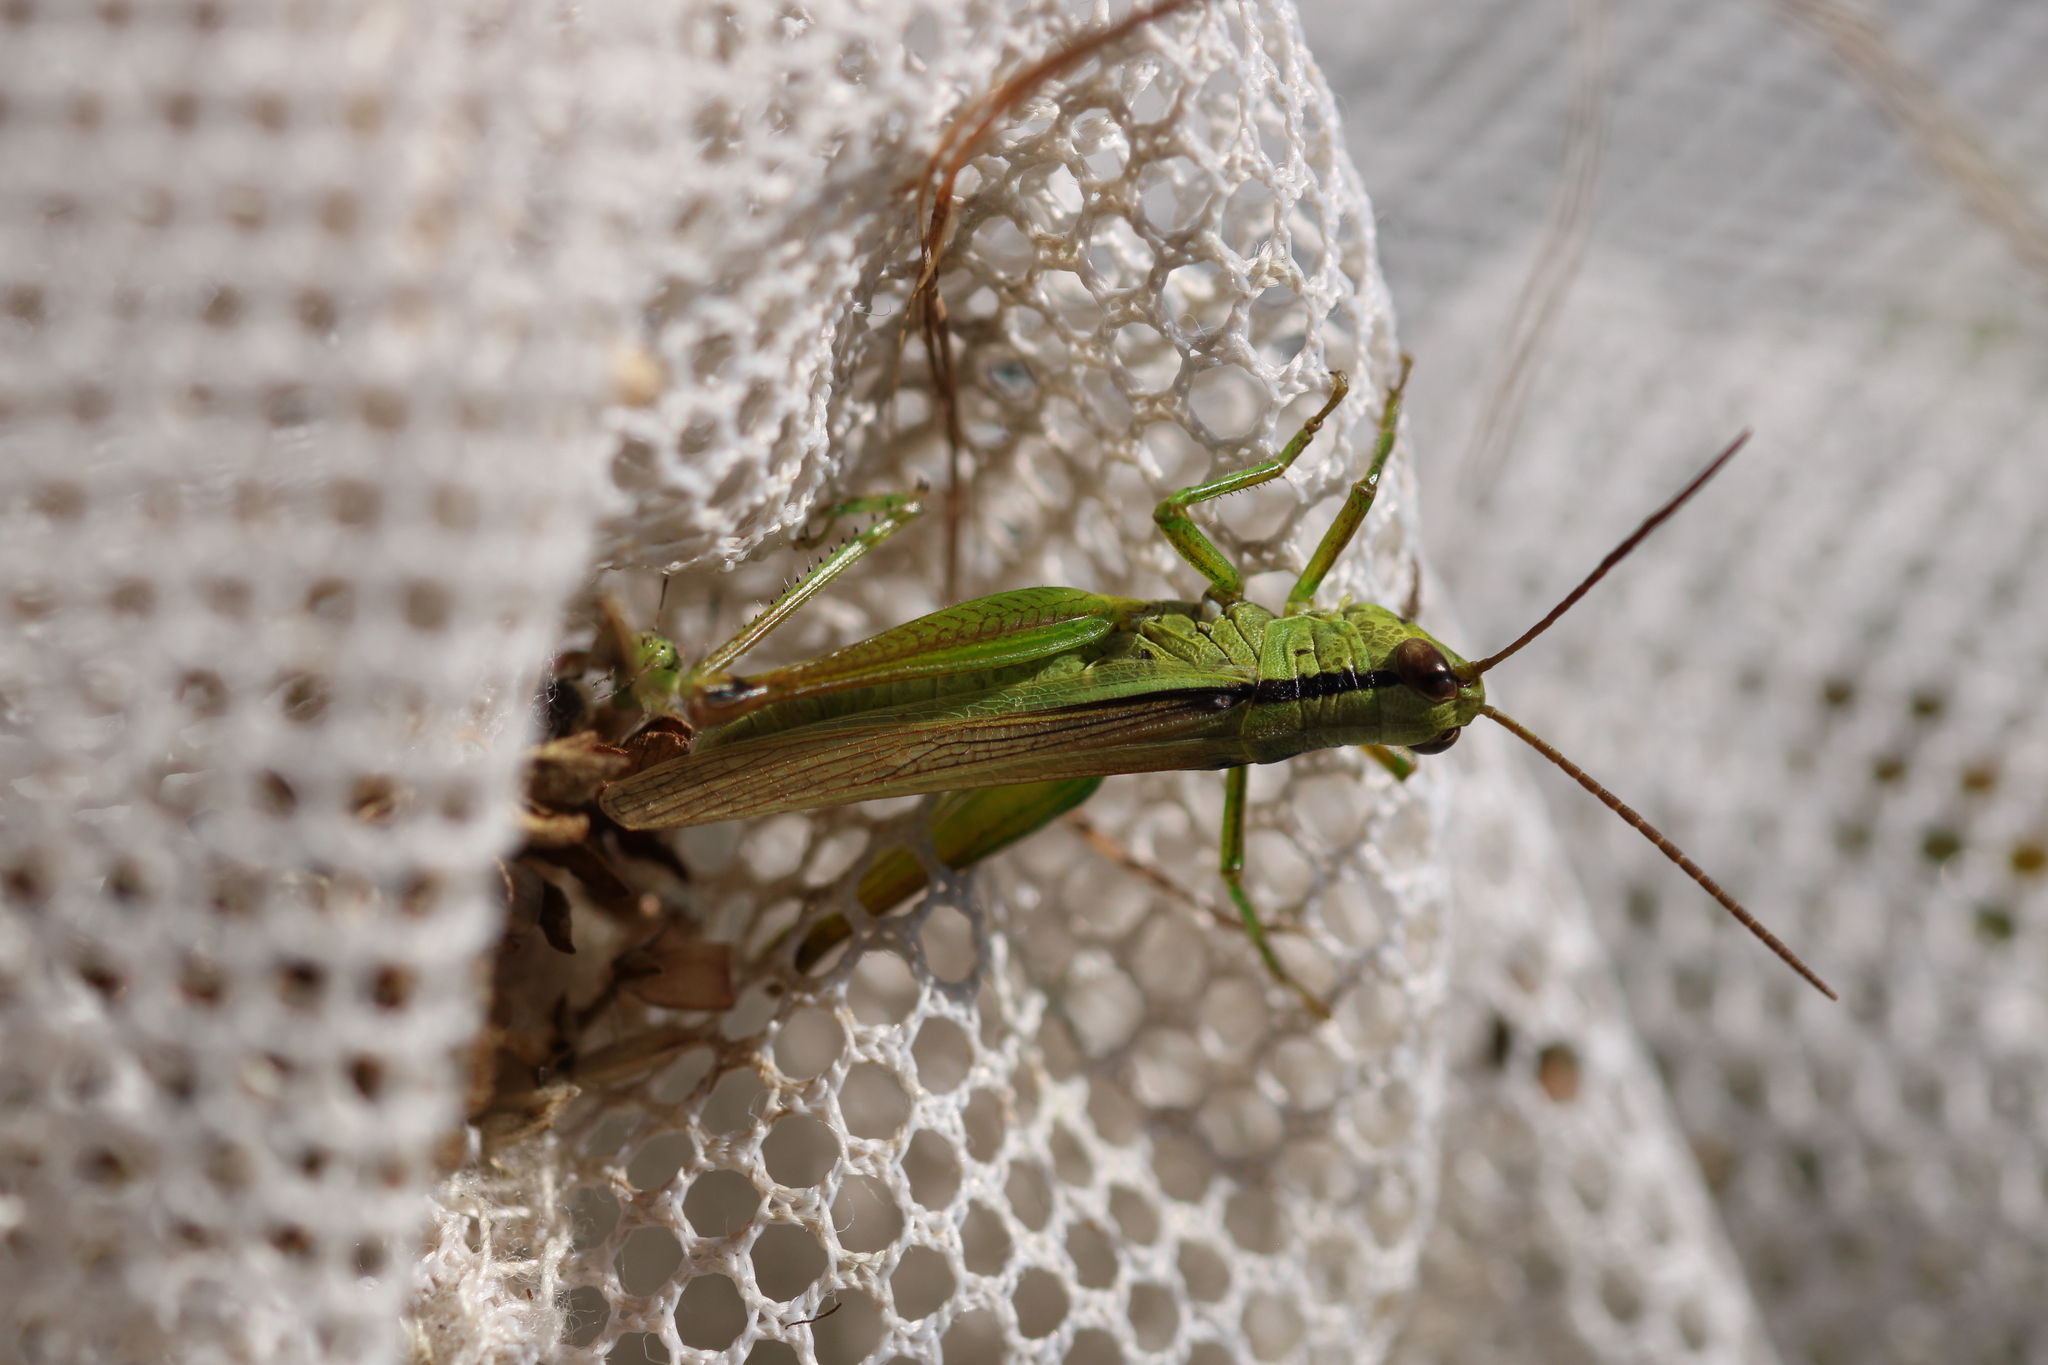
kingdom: Animalia
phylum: Arthropoda
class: Insecta
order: Orthoptera
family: Acrididae
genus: Mecostethus
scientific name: Mecostethus parapleurus
